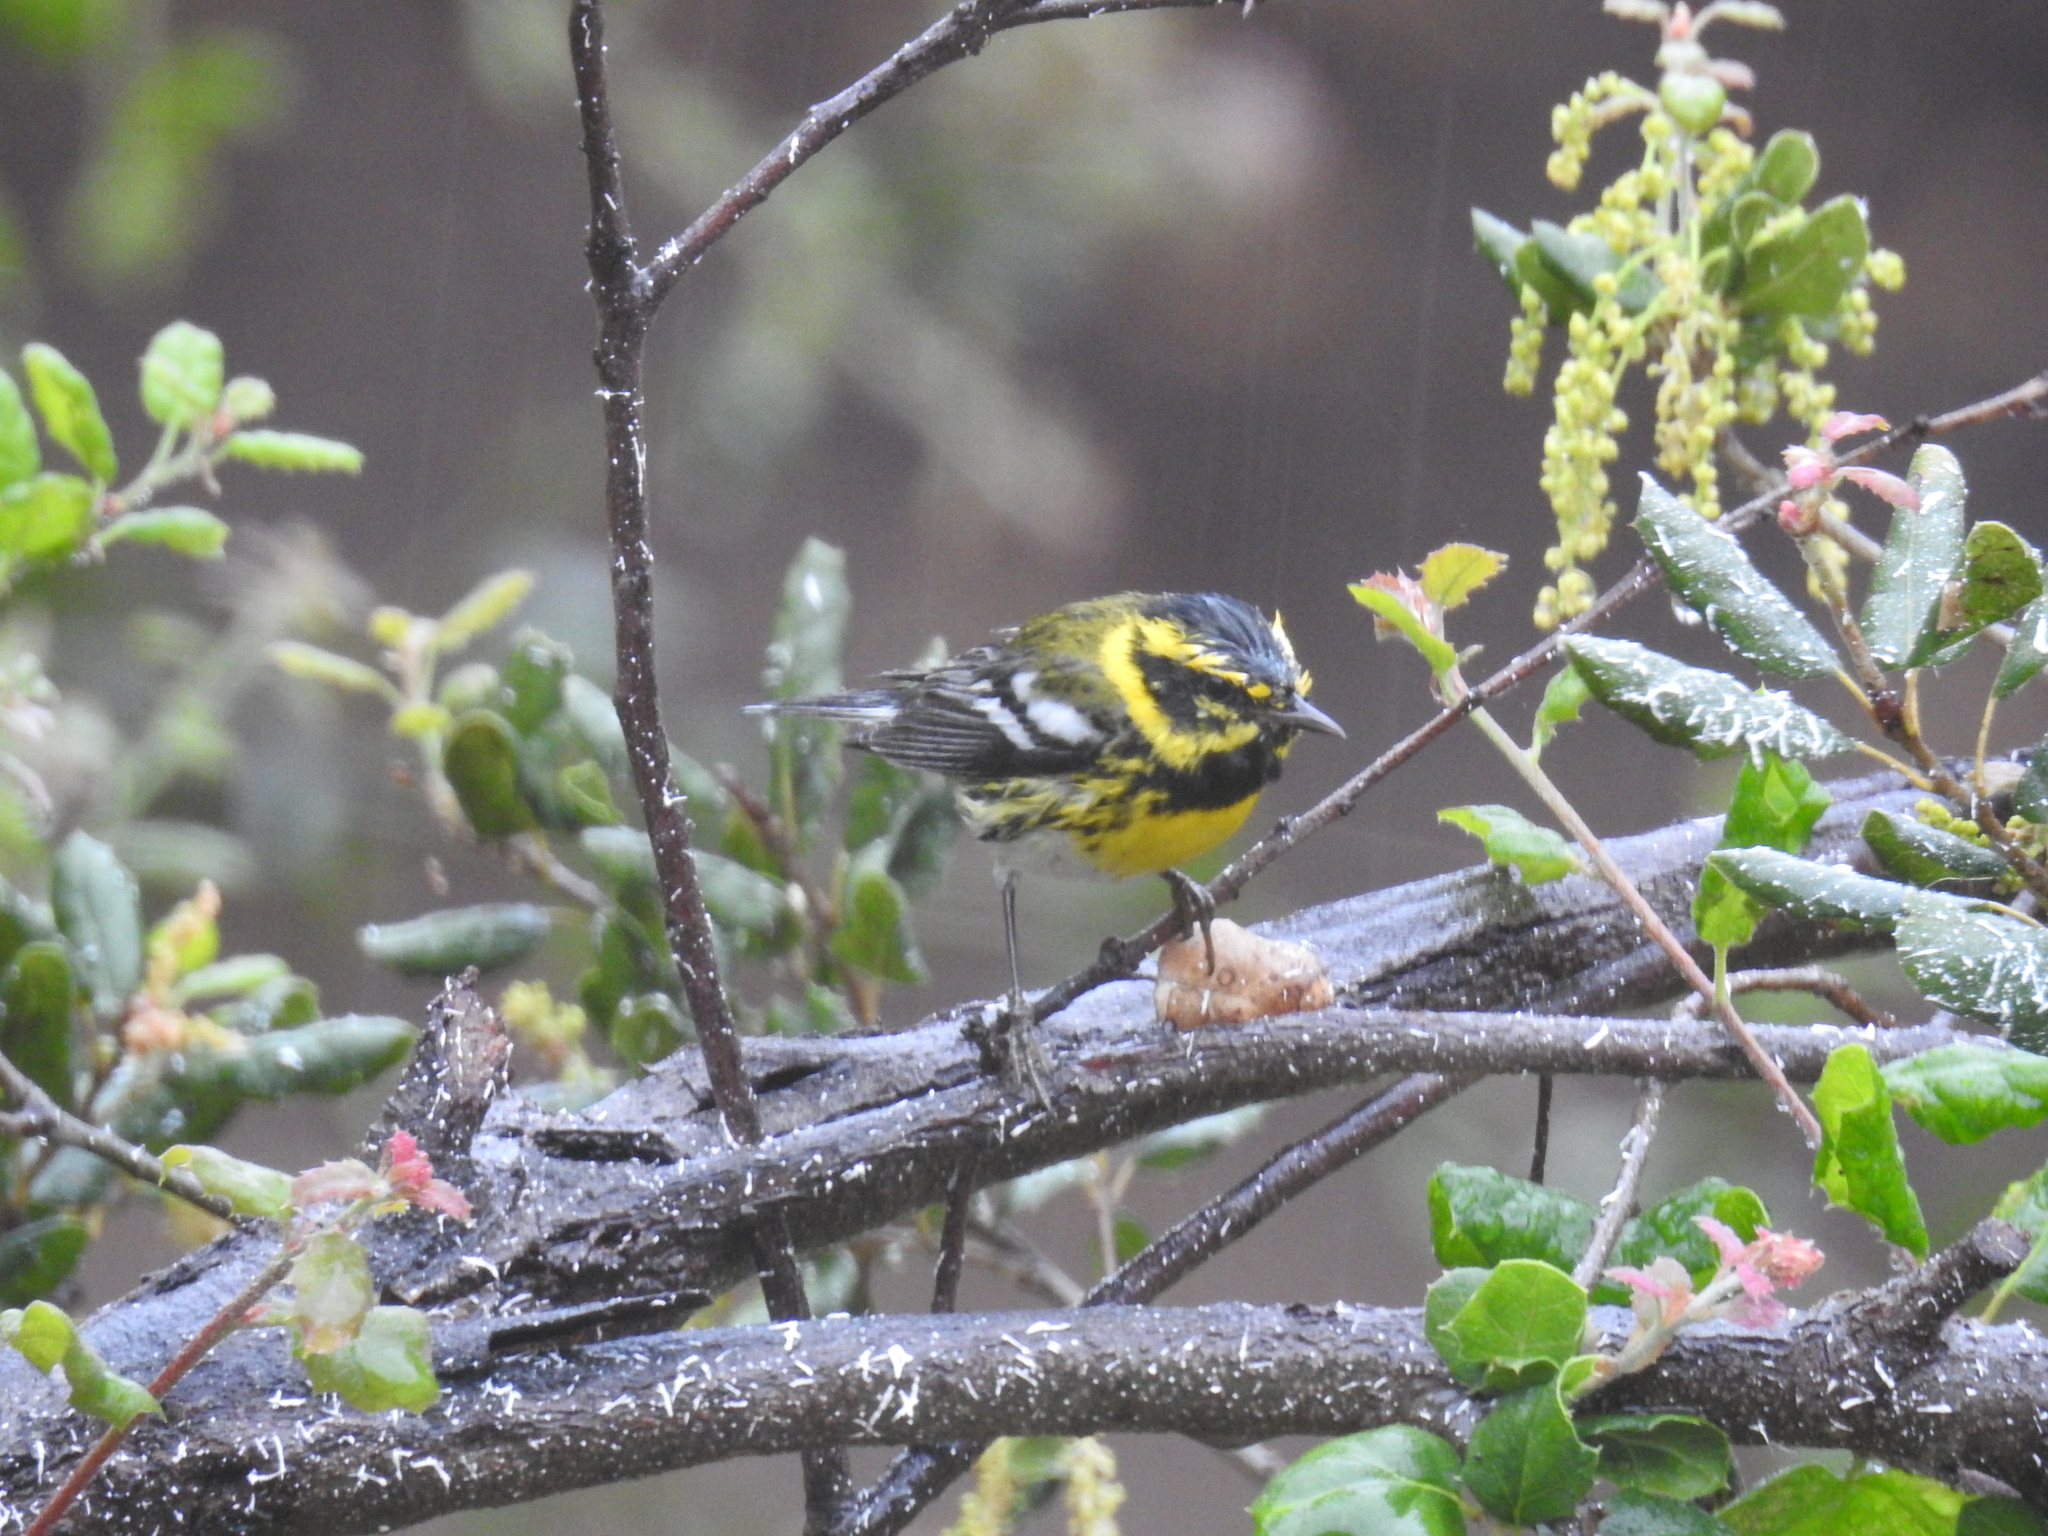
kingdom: Animalia
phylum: Chordata
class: Aves
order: Passeriformes
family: Parulidae
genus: Setophaga
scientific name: Setophaga townsendi
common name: Townsend's warbler
